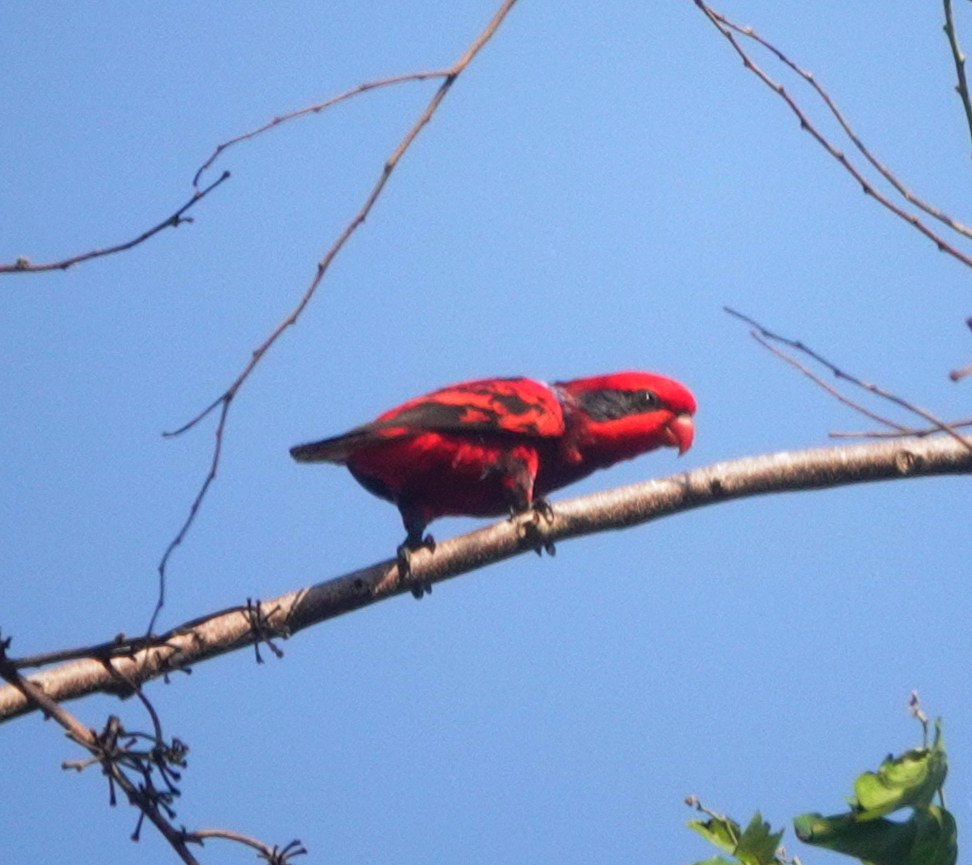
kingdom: Animalia
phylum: Chordata
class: Aves
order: Psittaciformes
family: Psittacidae
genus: Eos
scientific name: Eos reticulata
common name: Blue-streaked lory
